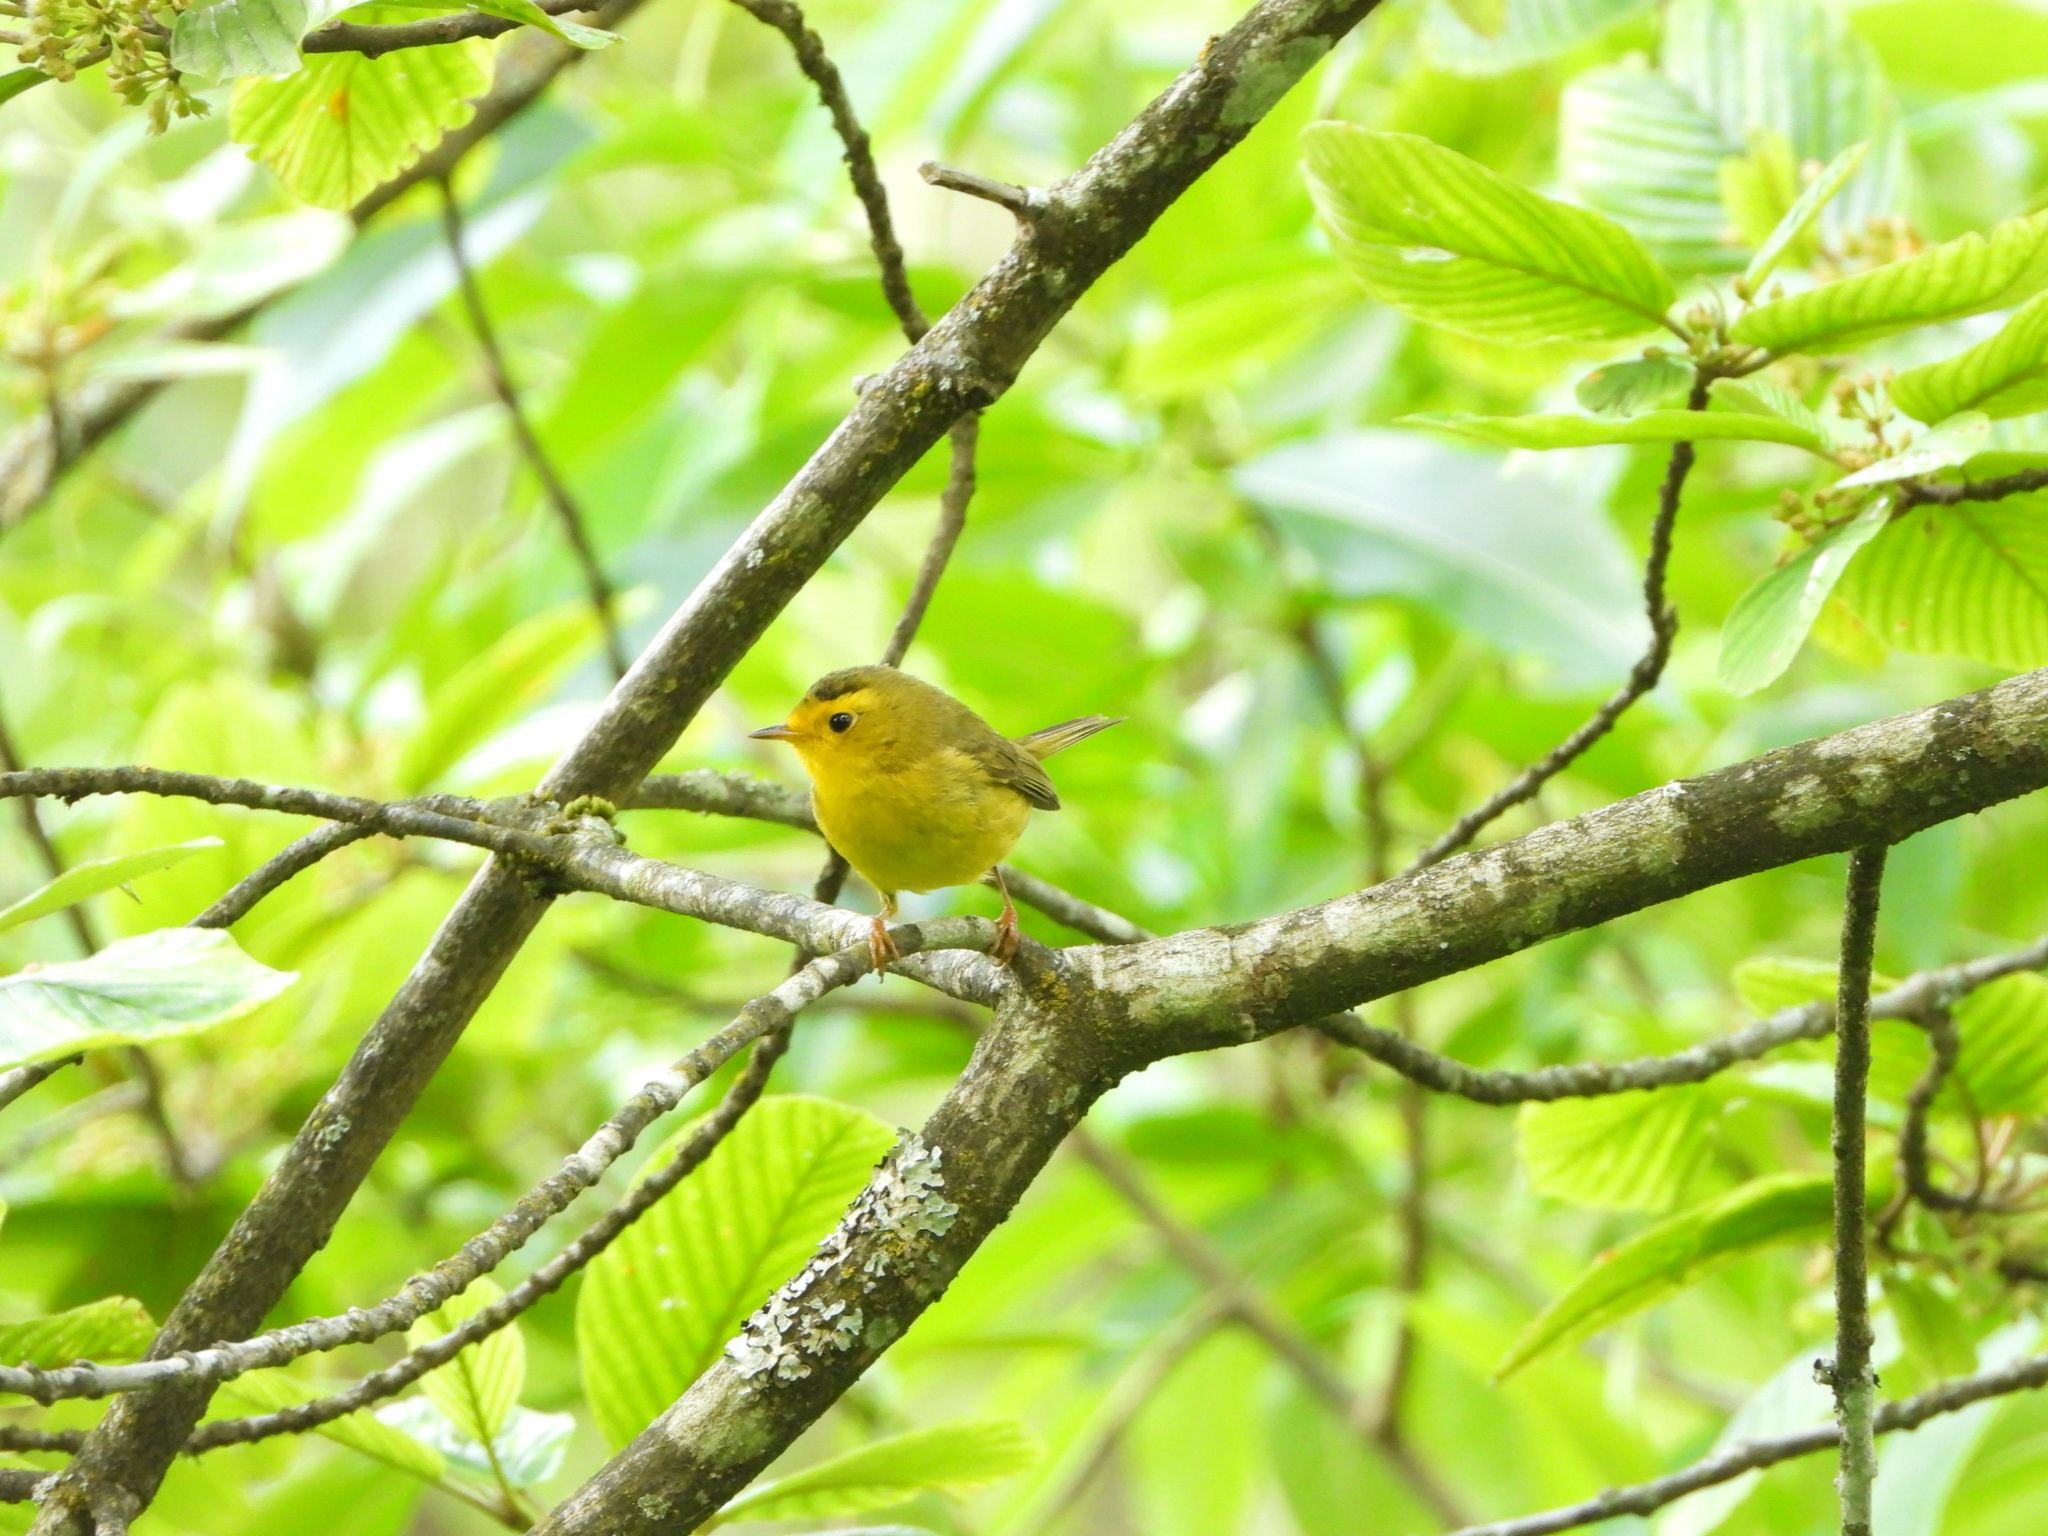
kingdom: Animalia
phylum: Chordata
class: Aves
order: Passeriformes
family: Parulidae
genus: Cardellina
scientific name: Cardellina pusilla
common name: Wilson's warbler
